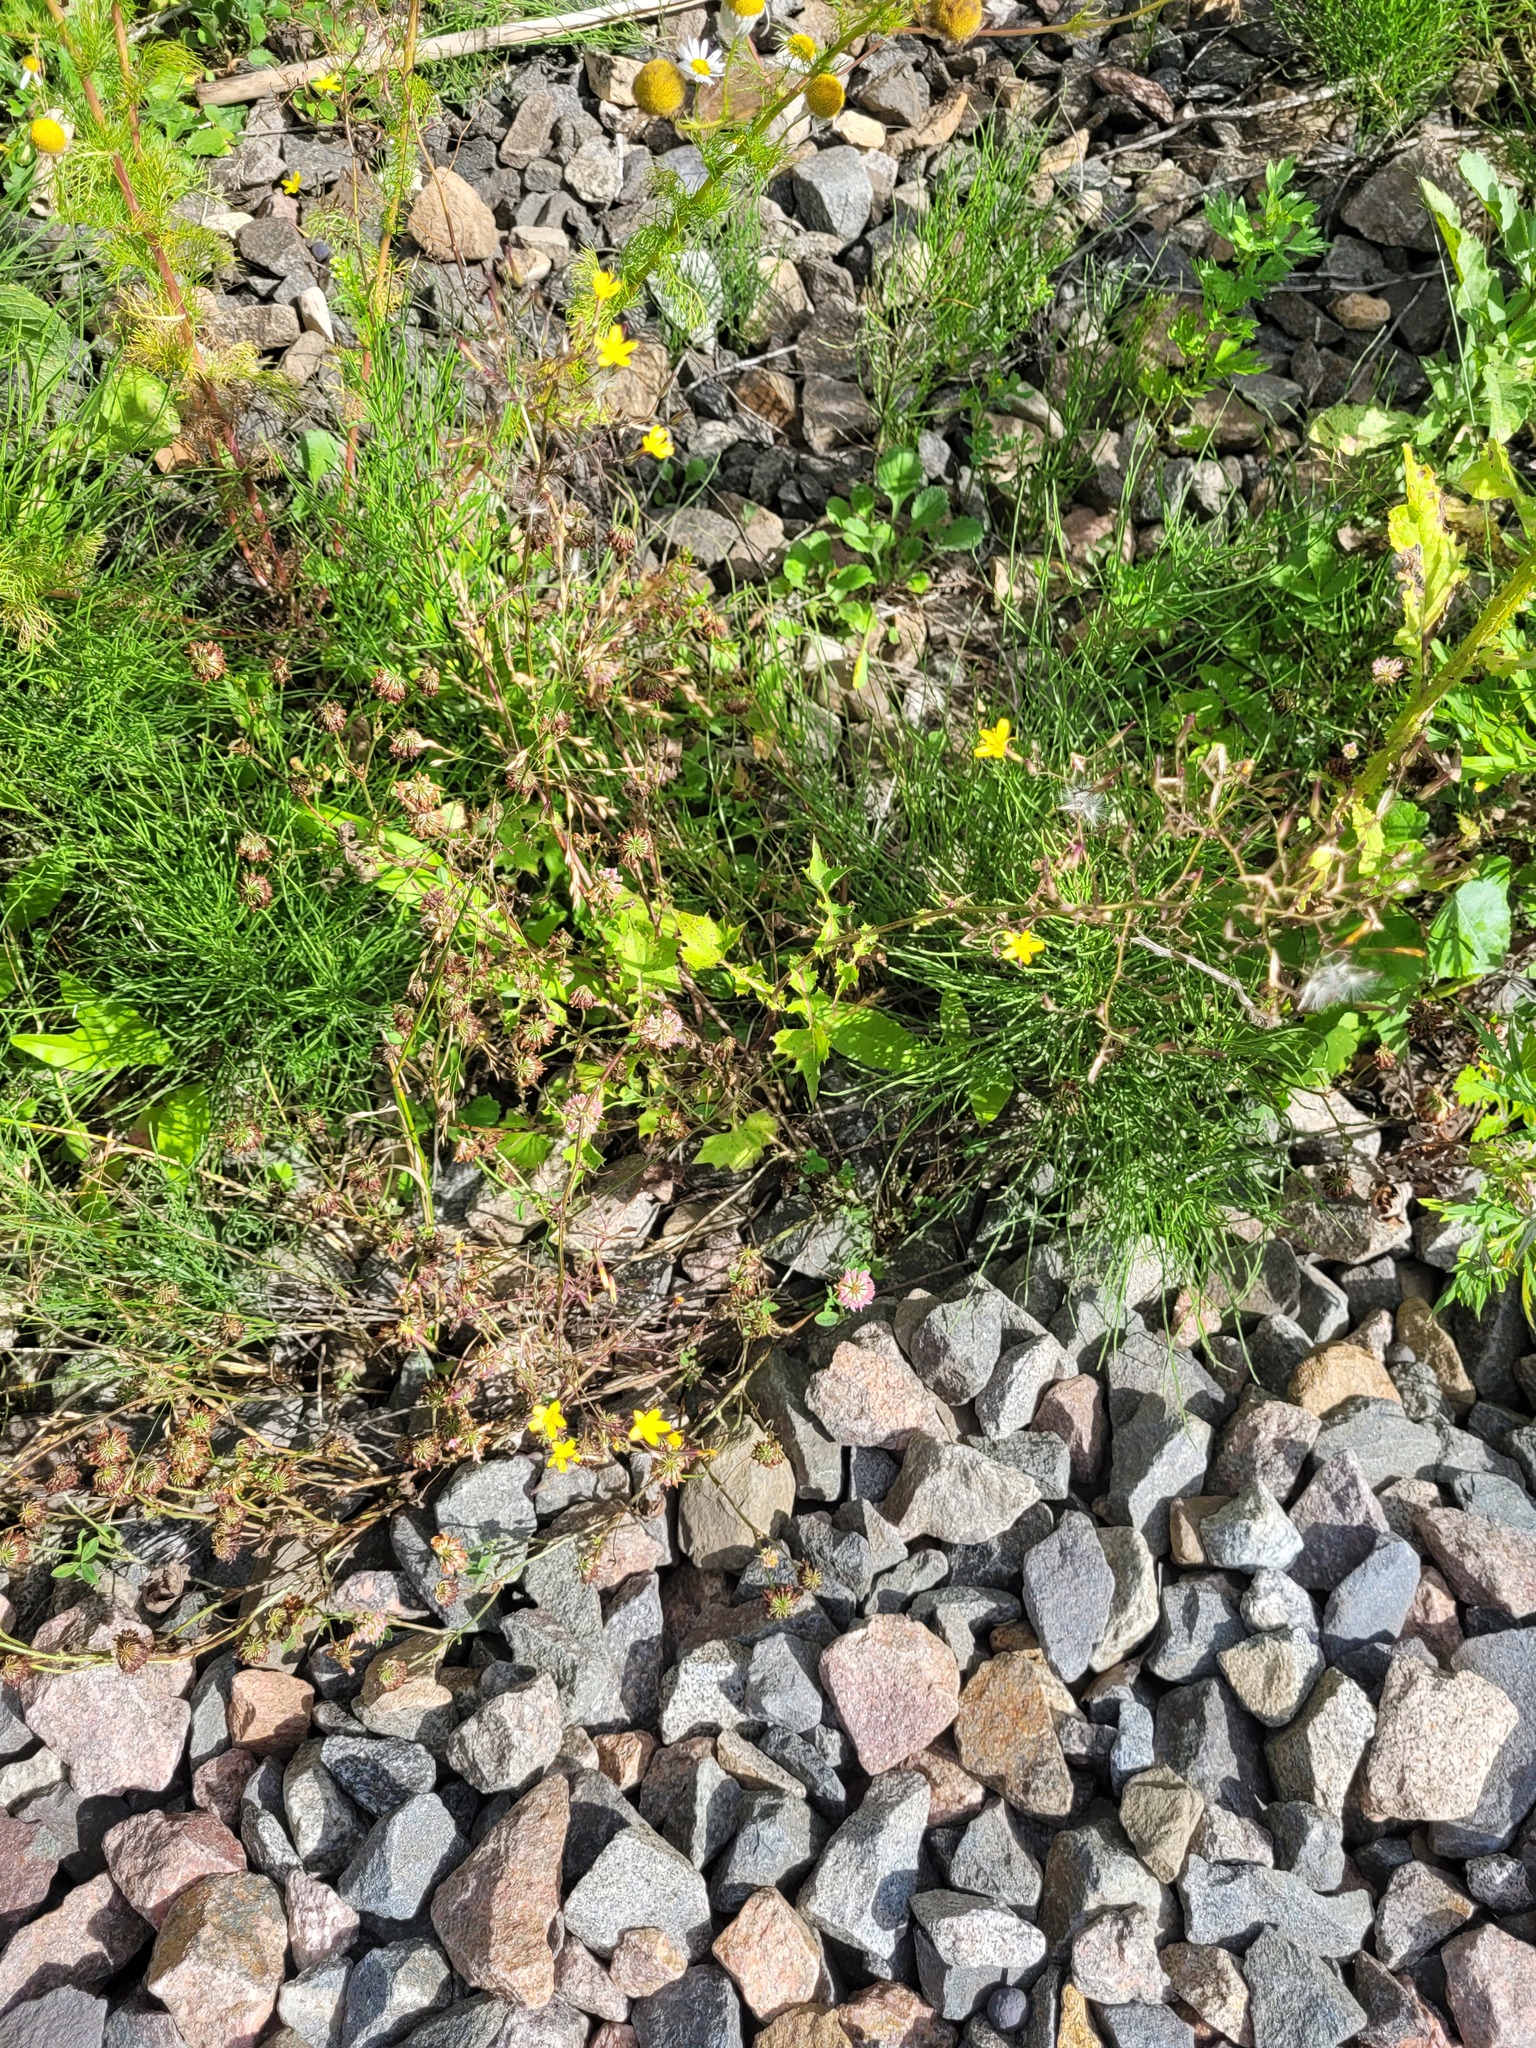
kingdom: Plantae
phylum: Tracheophyta
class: Magnoliopsida
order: Fabales
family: Fabaceae
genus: Trifolium
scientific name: Trifolium hybridum
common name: Alsike clover
